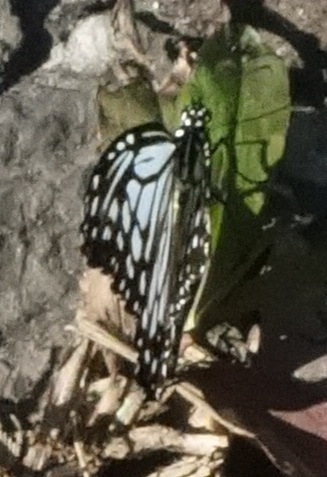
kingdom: Animalia
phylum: Arthropoda
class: Insecta
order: Lepidoptera
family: Nymphalidae
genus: Parantica
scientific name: Parantica aglea
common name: Glassy tiger
